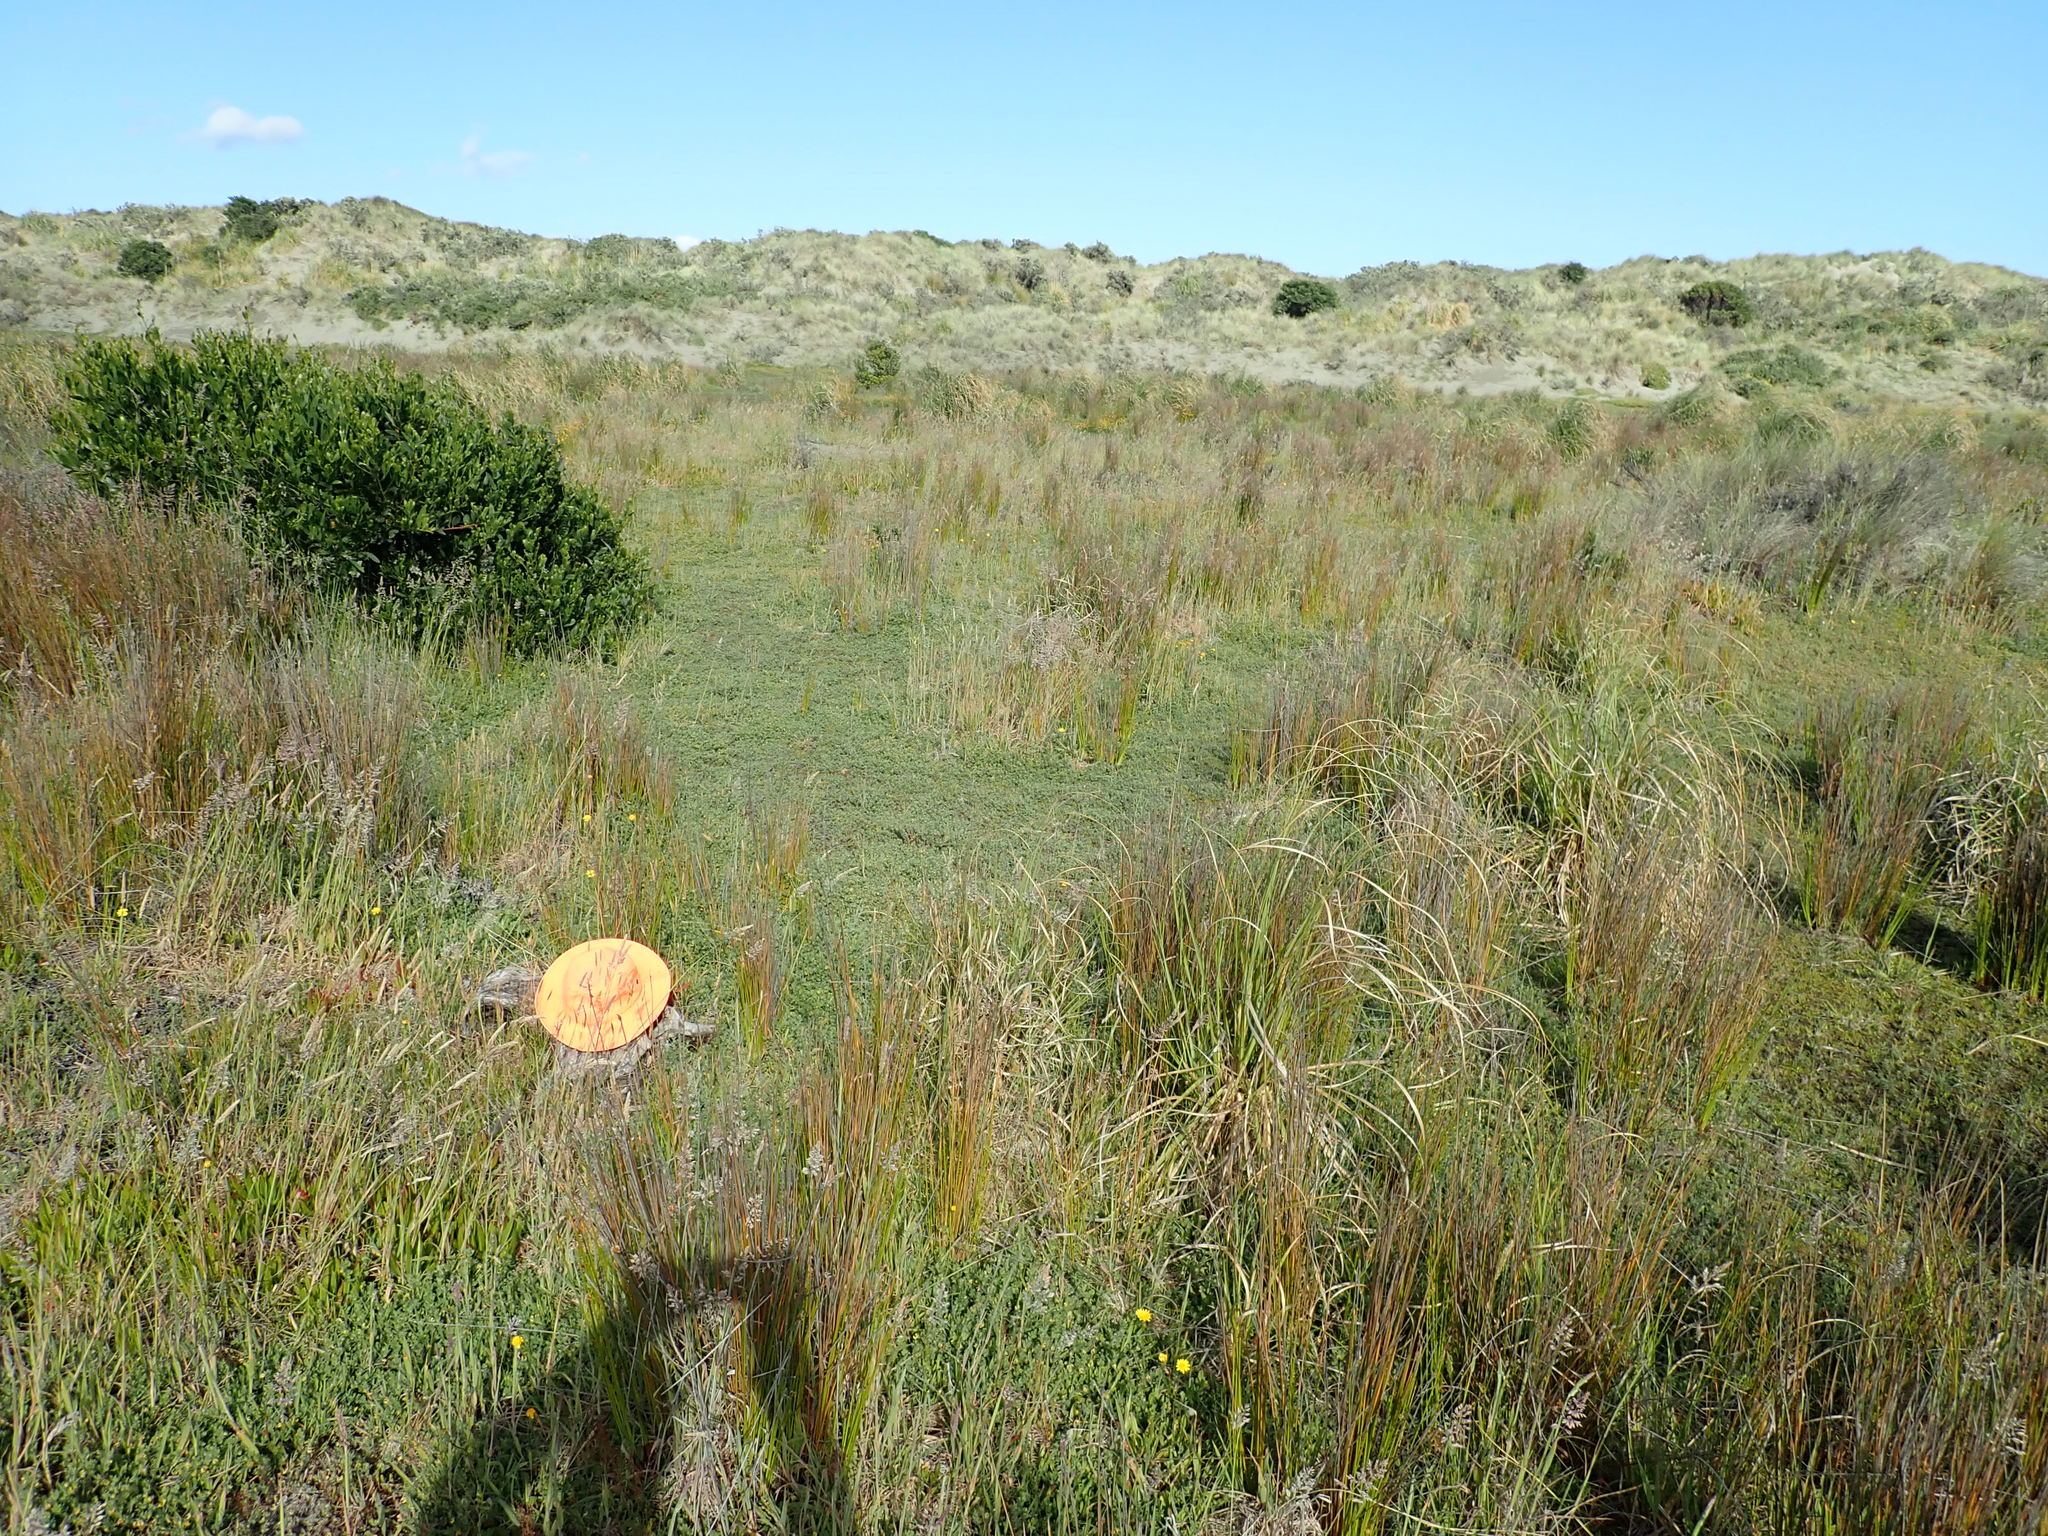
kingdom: Animalia
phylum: Arthropoda
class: Arachnida
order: Araneae
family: Porrhothelidae
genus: Porrhothele
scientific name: Porrhothele antipodiana
